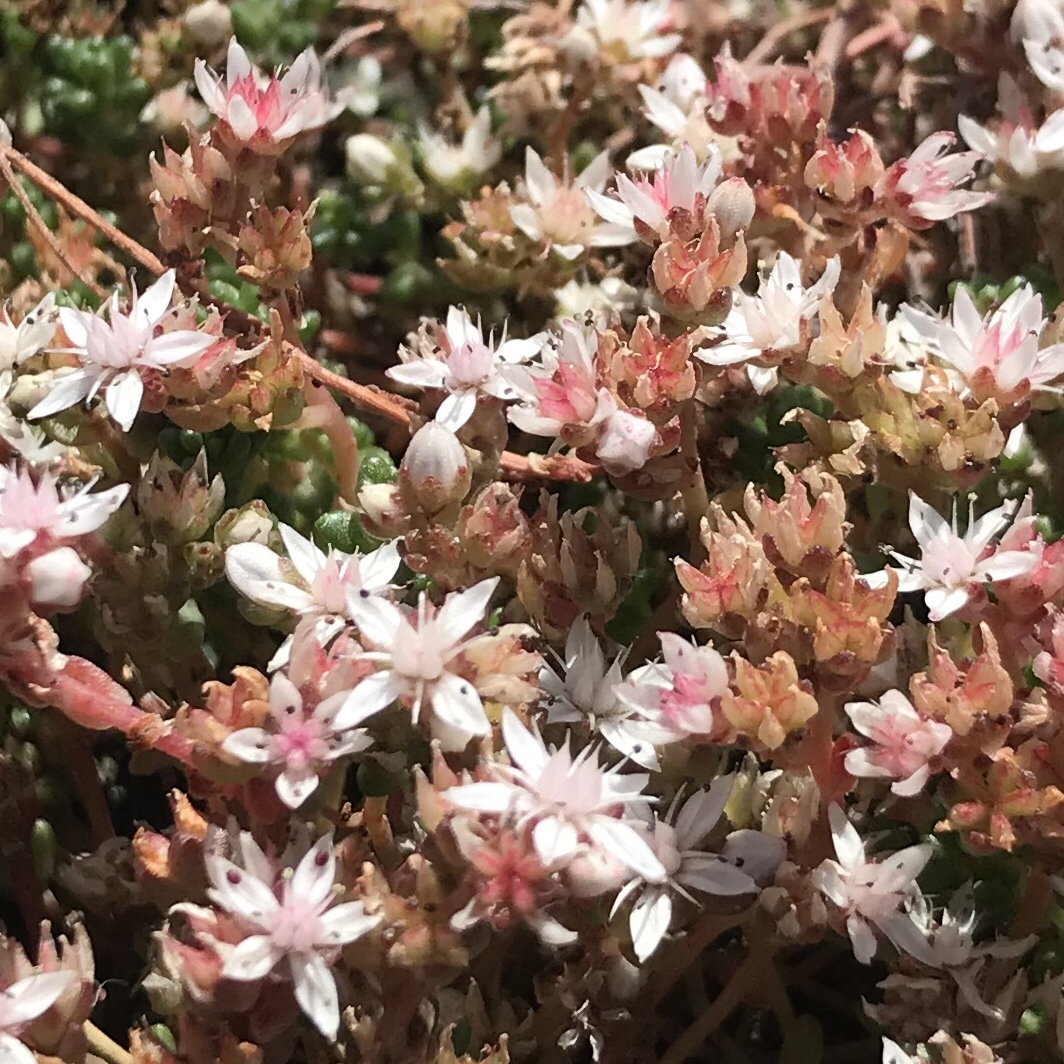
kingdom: Plantae
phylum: Tracheophyta
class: Magnoliopsida
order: Saxifragales
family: Crassulaceae
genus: Sedum
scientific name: Sedum anglicum
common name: English stonecrop
